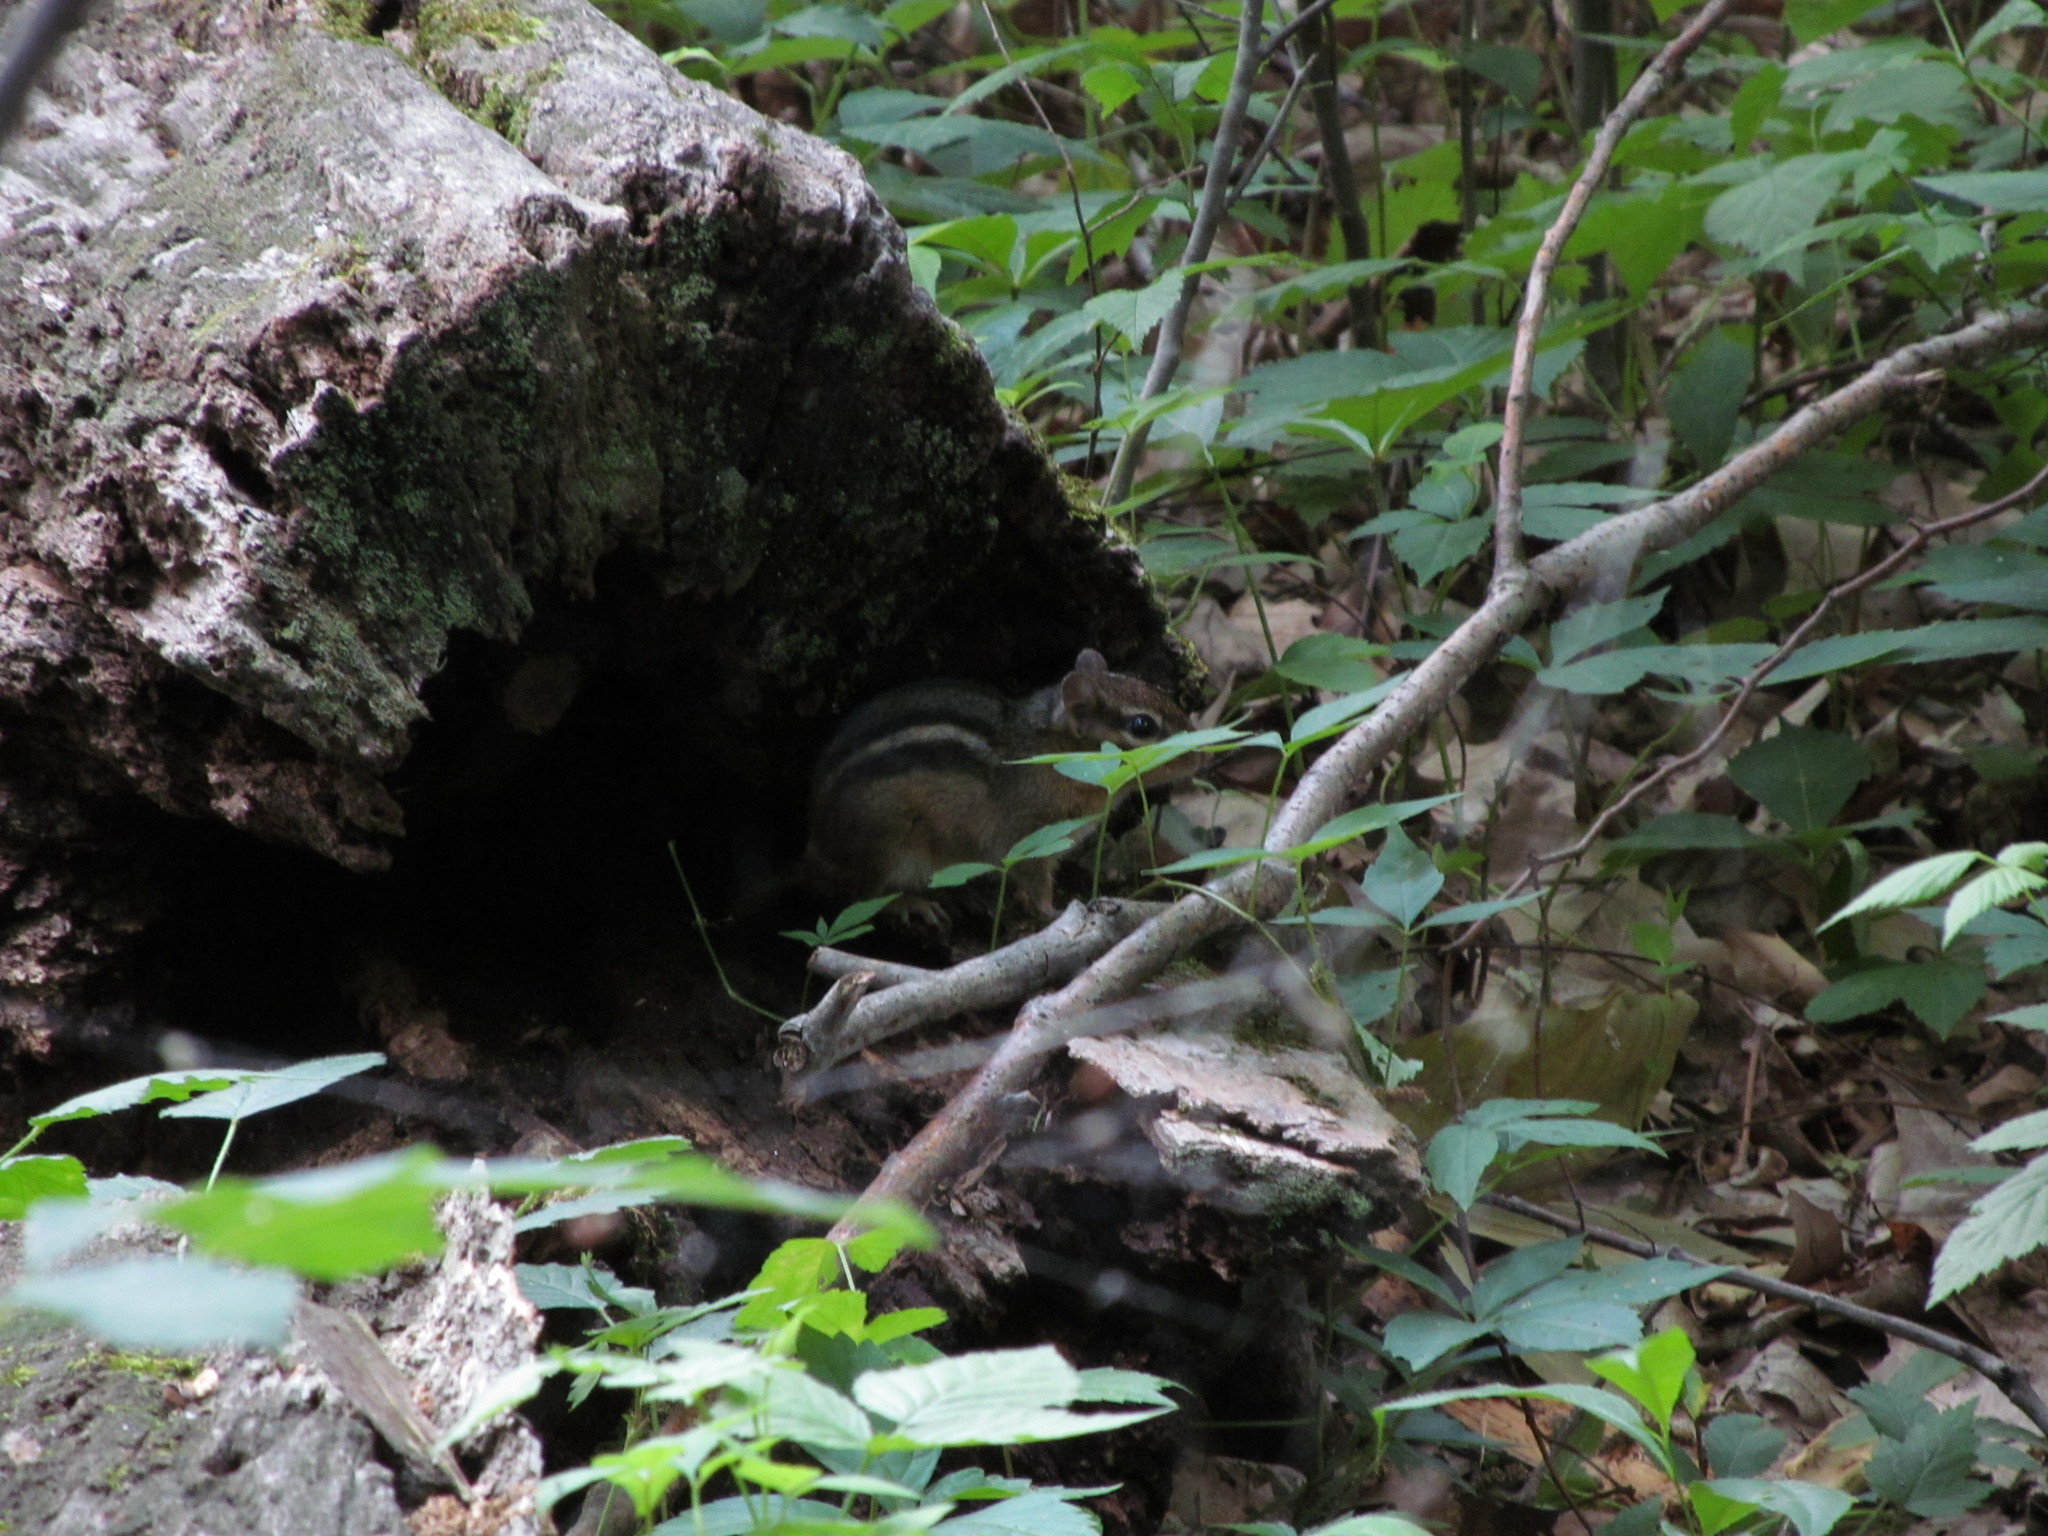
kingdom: Animalia
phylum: Chordata
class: Mammalia
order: Rodentia
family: Sciuridae
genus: Tamias
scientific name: Tamias striatus
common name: Eastern chipmunk
